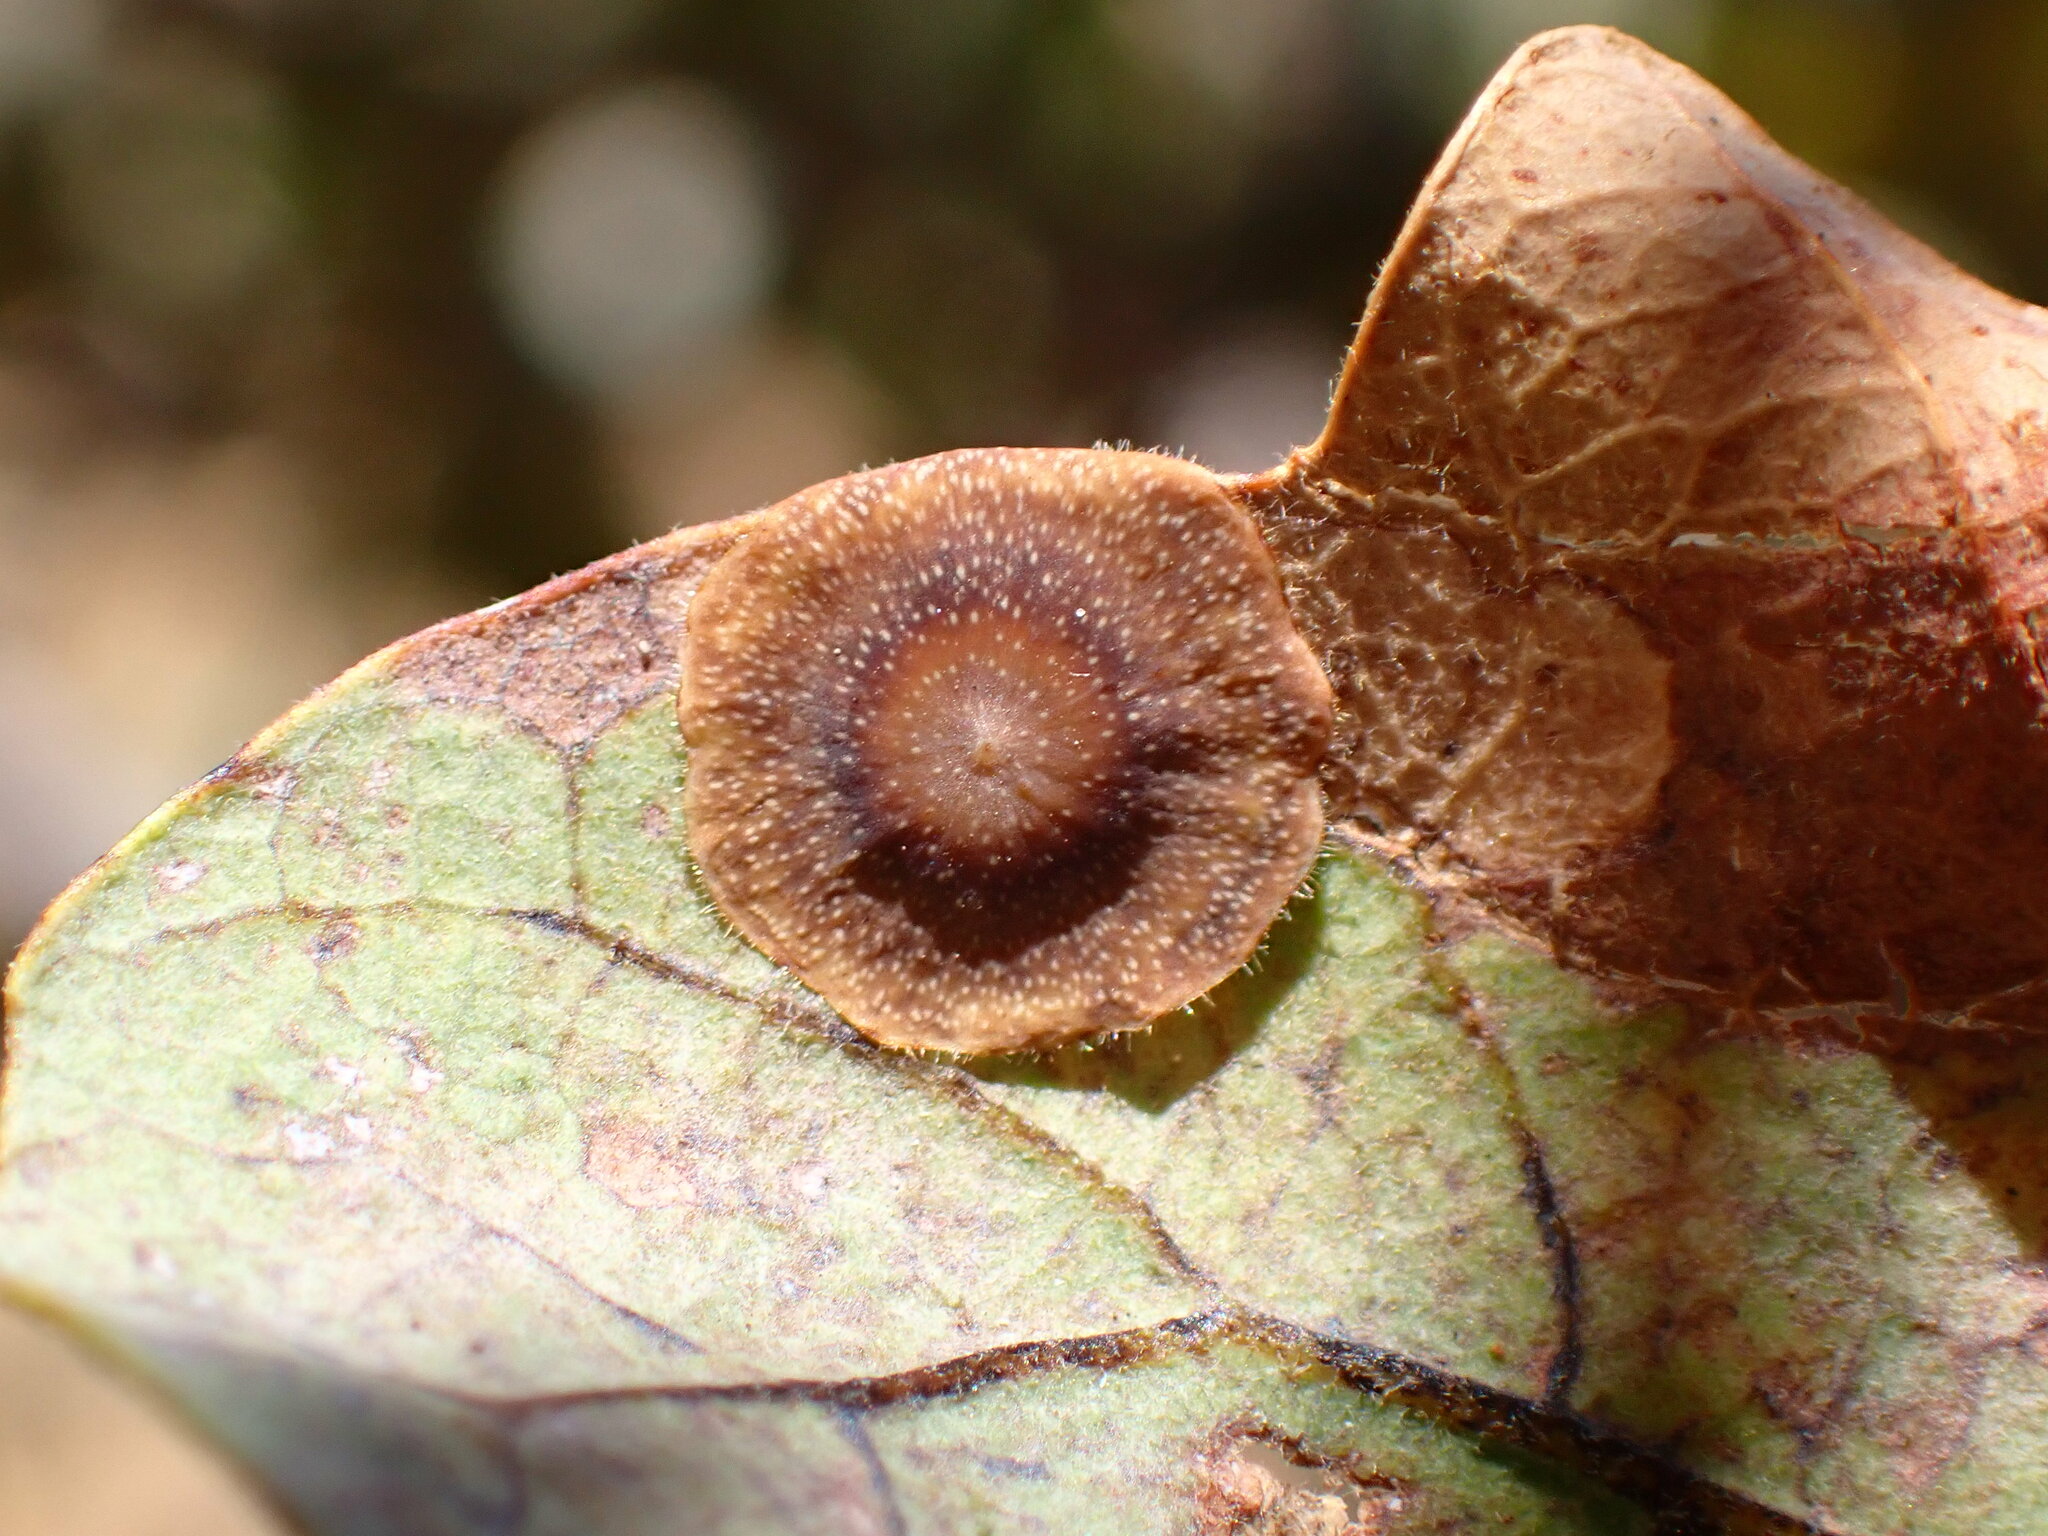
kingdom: Animalia
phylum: Arthropoda
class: Insecta
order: Hymenoptera
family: Cynipidae
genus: Andricus
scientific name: Andricus
